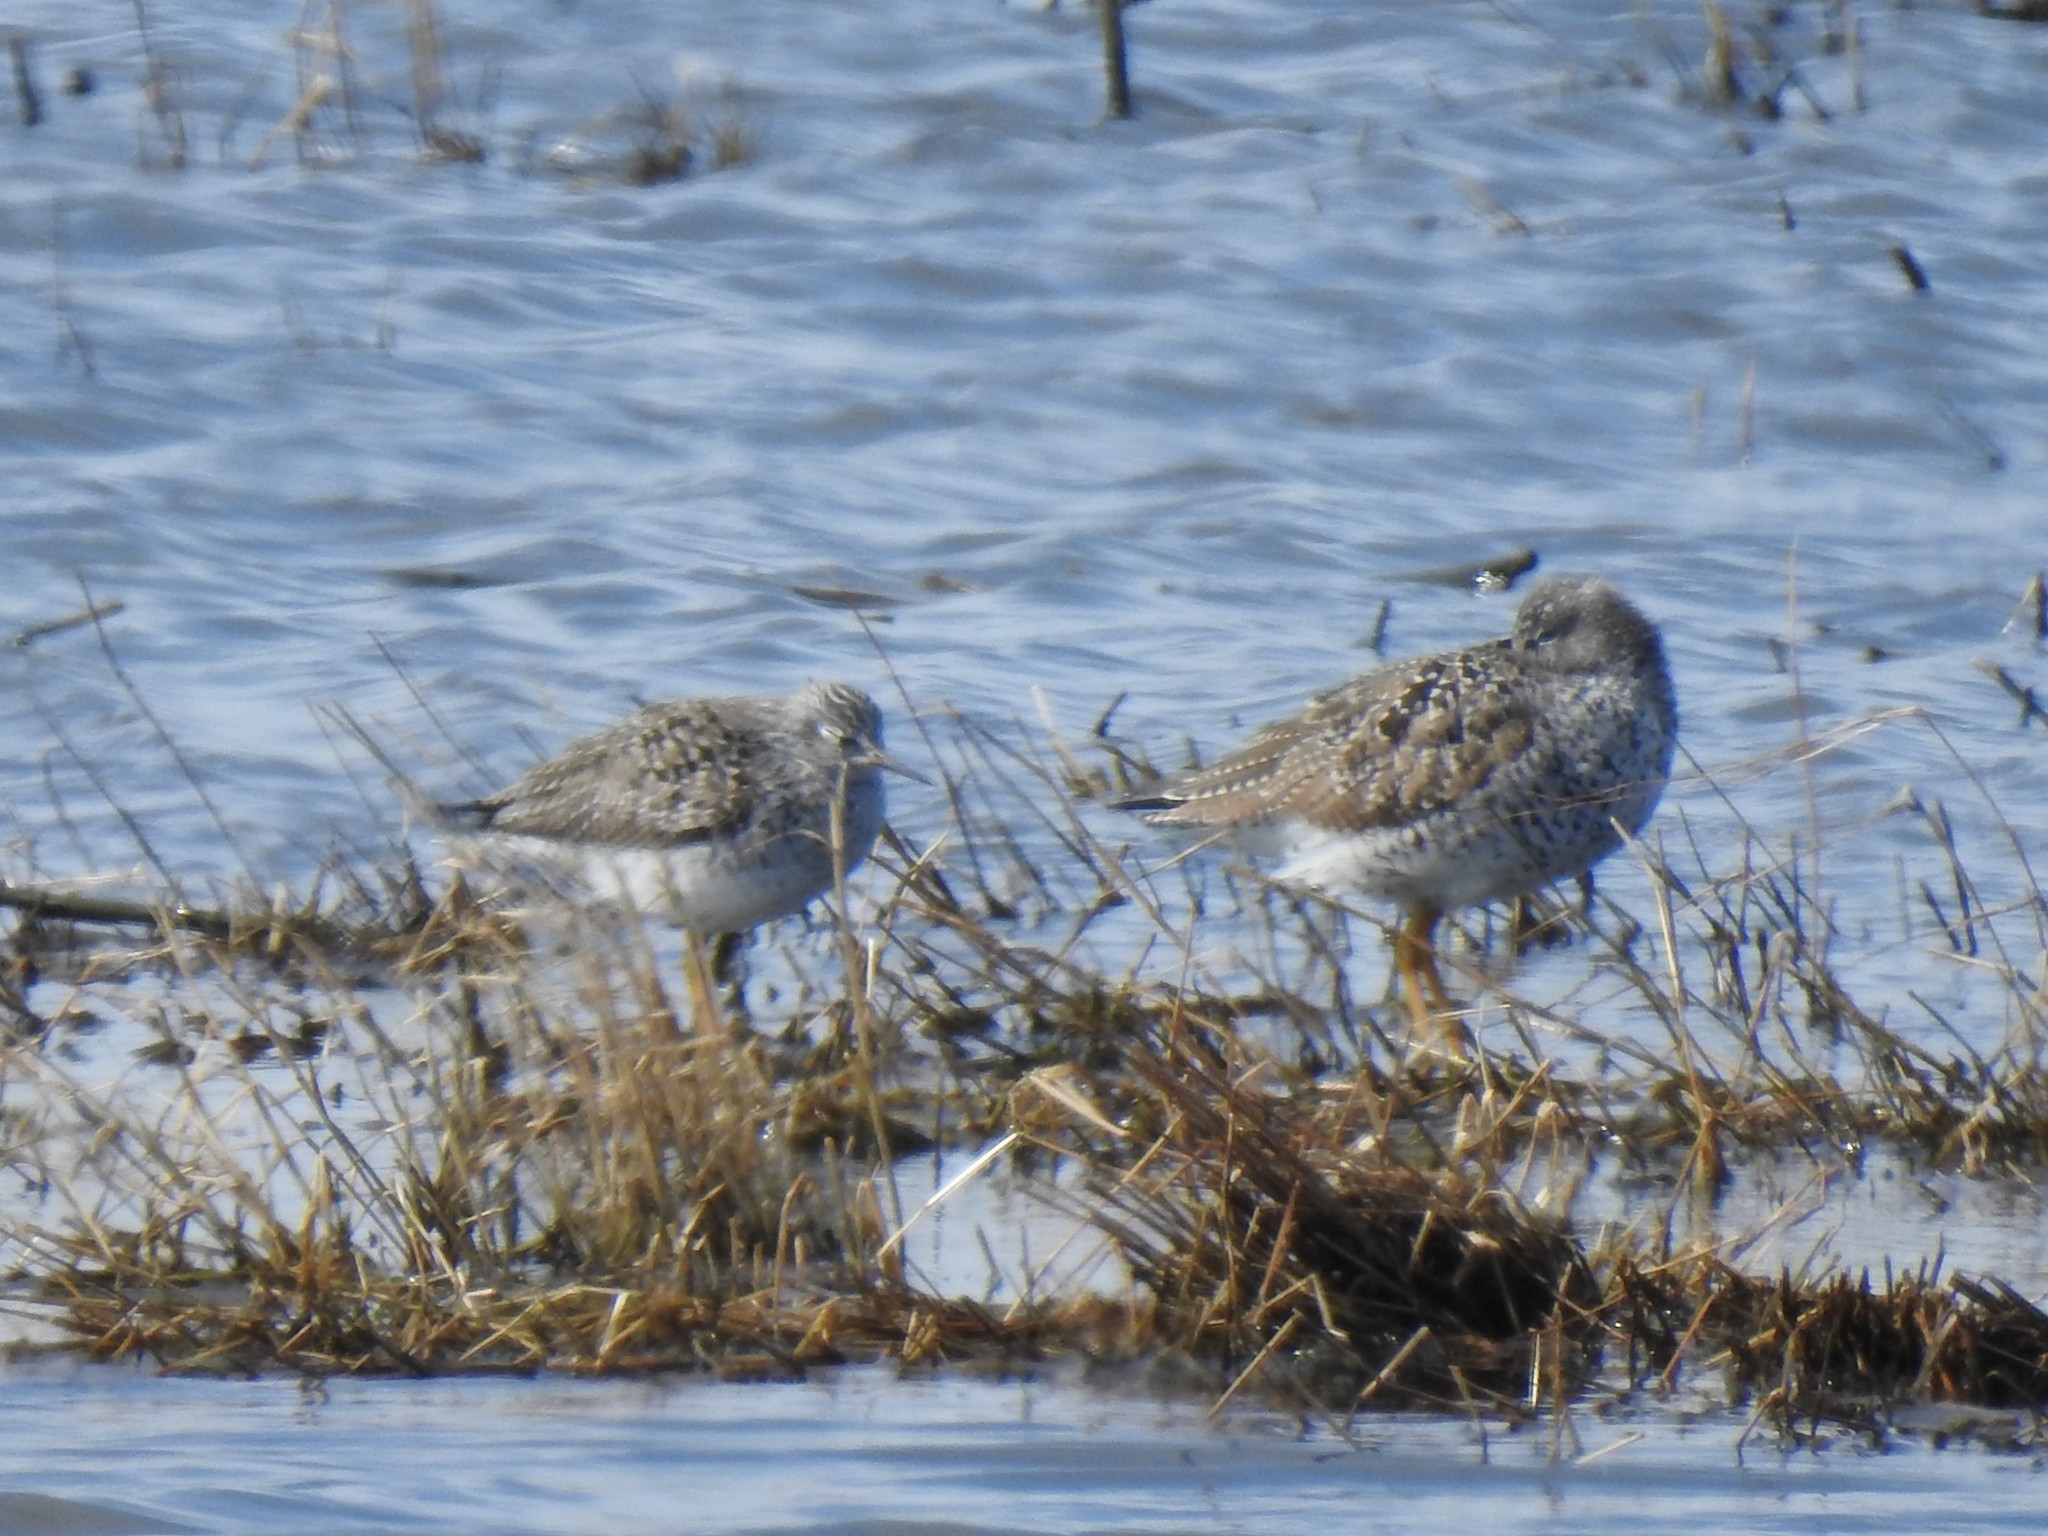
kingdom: Animalia
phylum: Chordata
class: Aves
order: Charadriiformes
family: Scolopacidae
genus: Tringa
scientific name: Tringa flavipes
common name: Lesser yellowlegs
